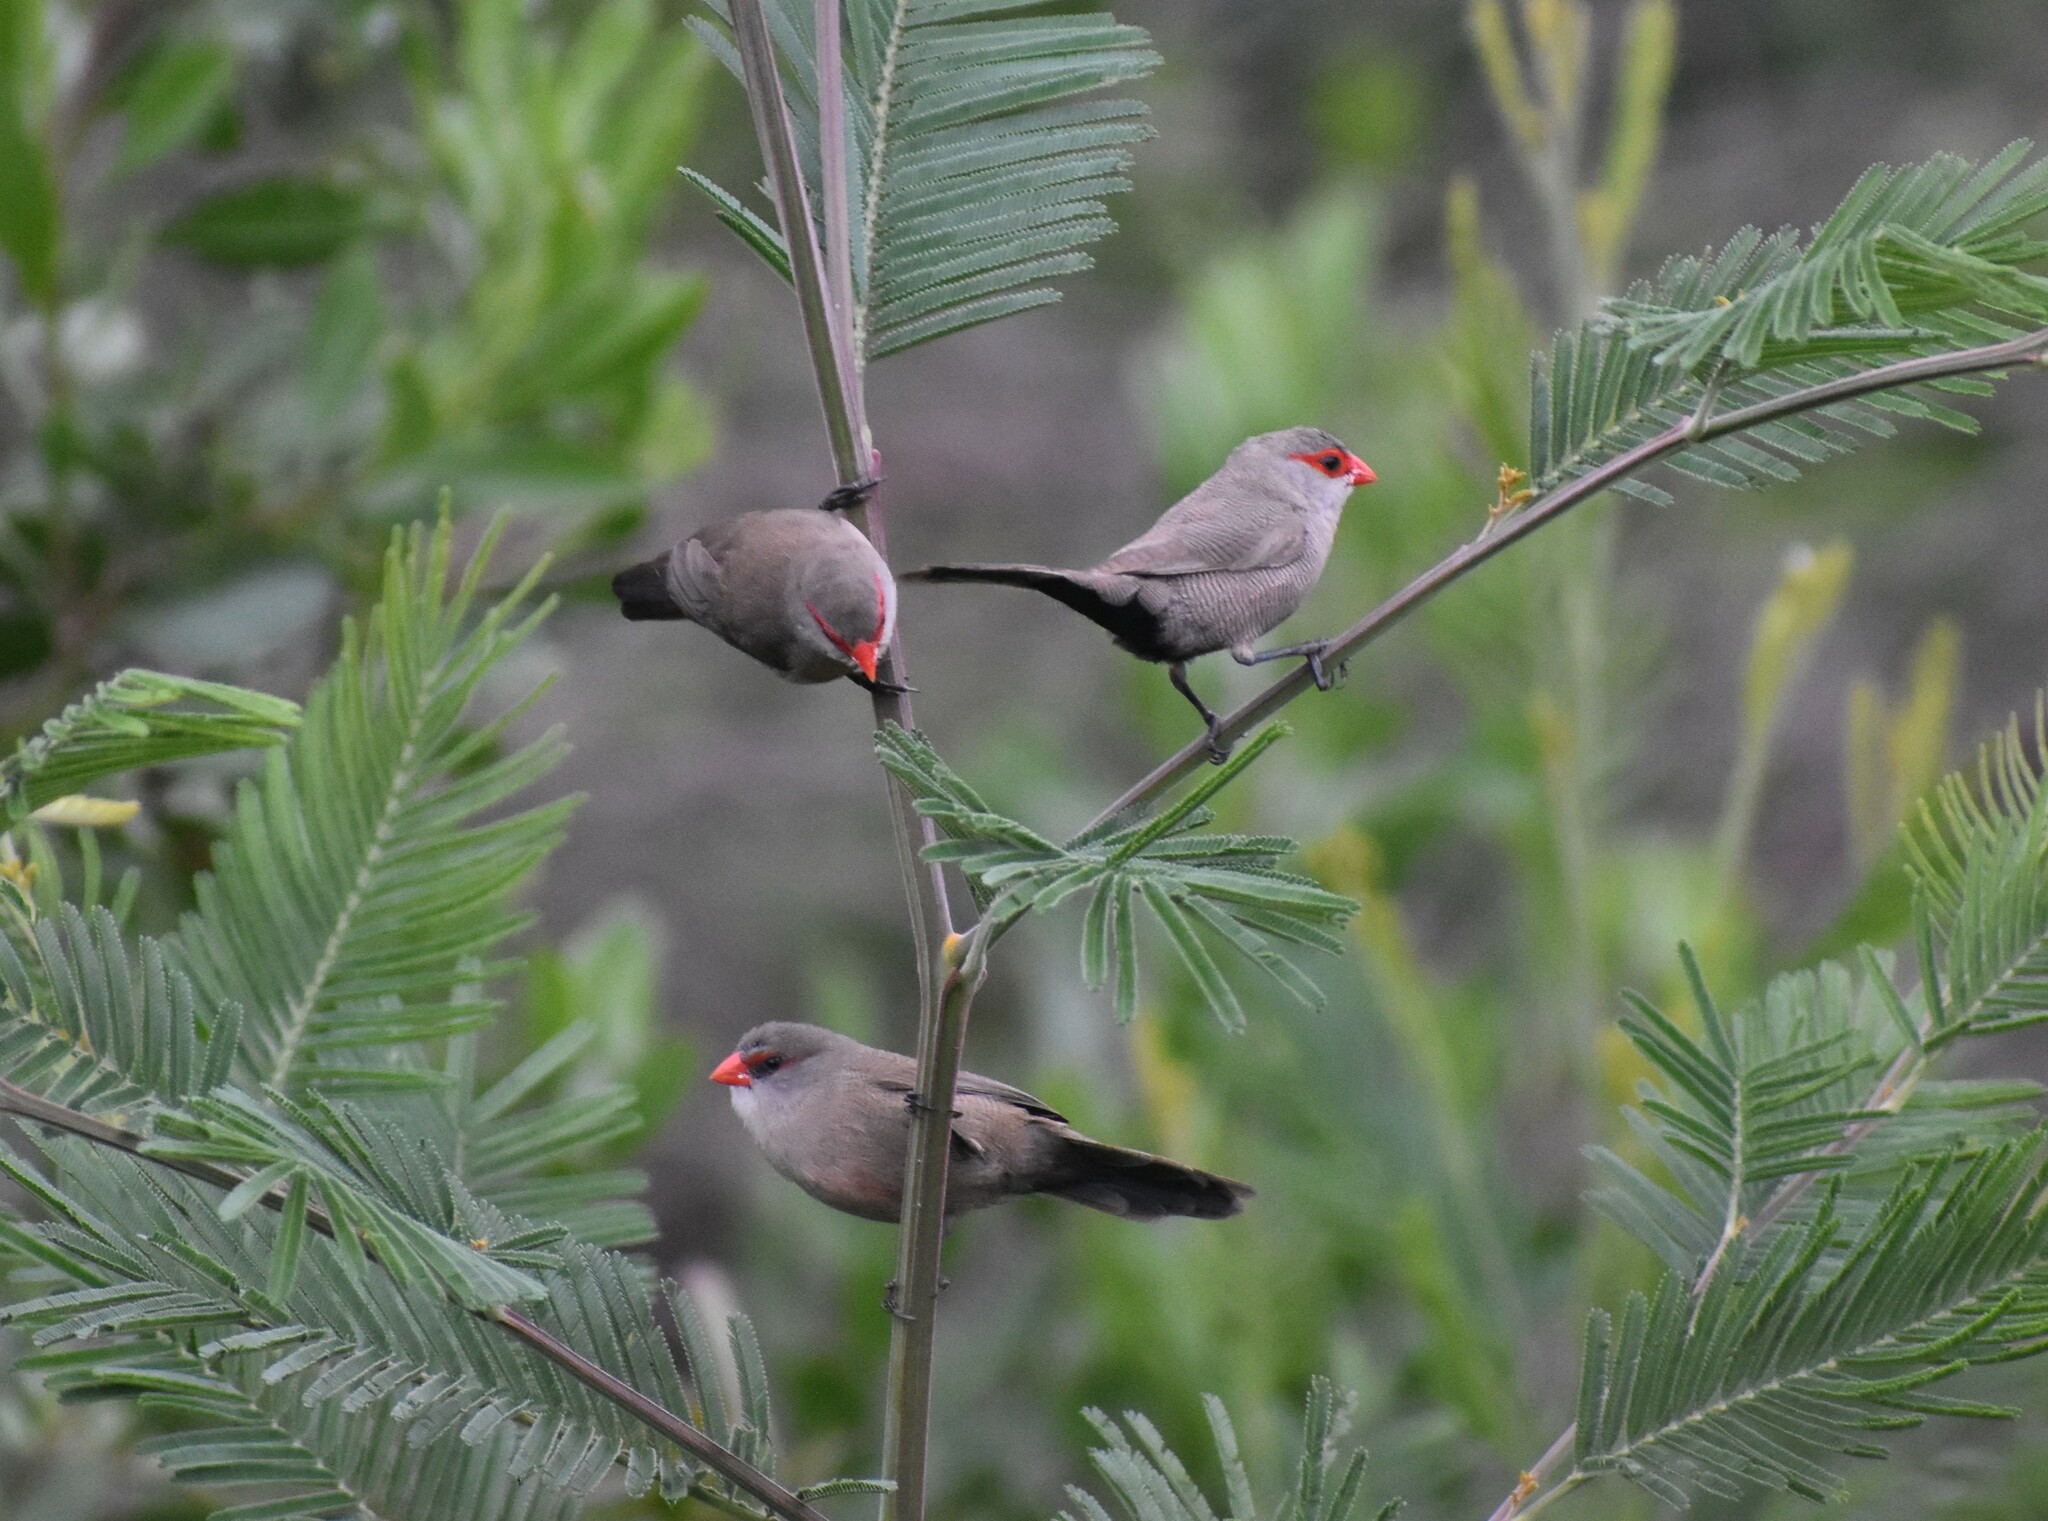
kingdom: Animalia
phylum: Chordata
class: Aves
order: Passeriformes
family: Estrildidae
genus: Estrilda
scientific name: Estrilda astrild
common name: Common waxbill
